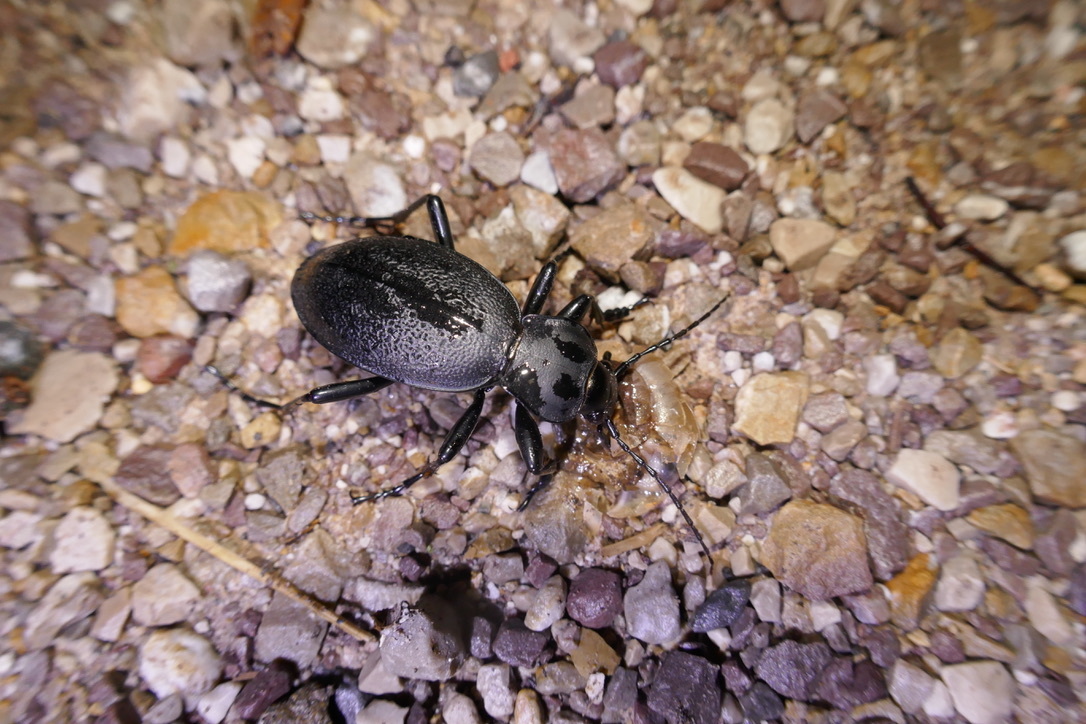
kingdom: Animalia
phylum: Arthropoda
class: Insecta
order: Coleoptera
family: Carabidae
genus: Carabus
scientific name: Carabus coriaceus
